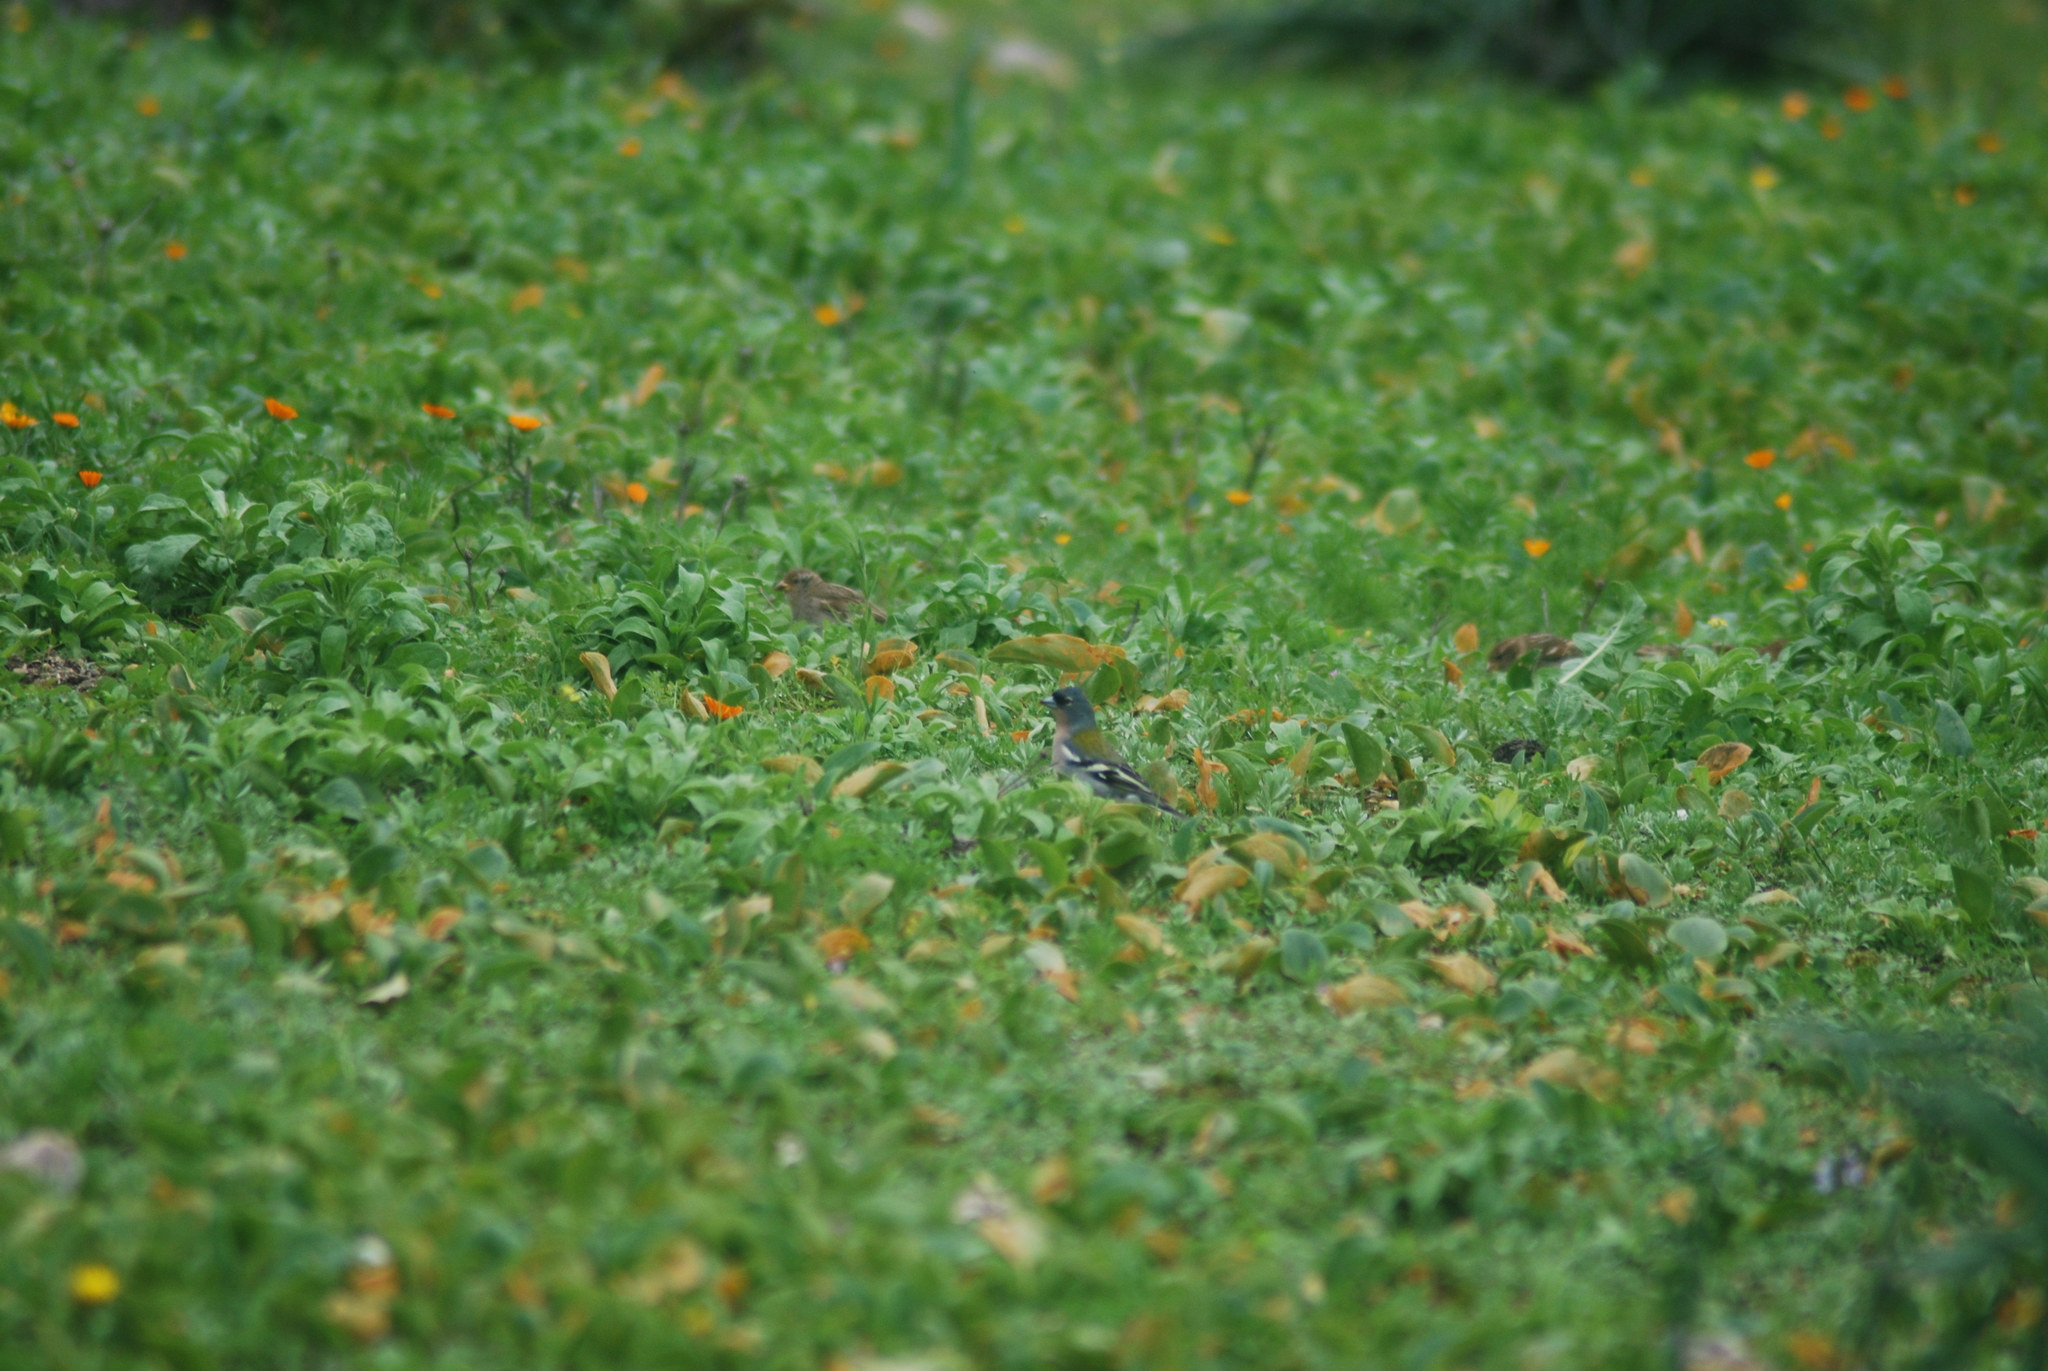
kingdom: Animalia
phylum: Chordata
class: Aves
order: Passeriformes
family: Fringillidae
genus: Fringilla
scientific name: Fringilla spodiogenys
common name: African chaffinch
